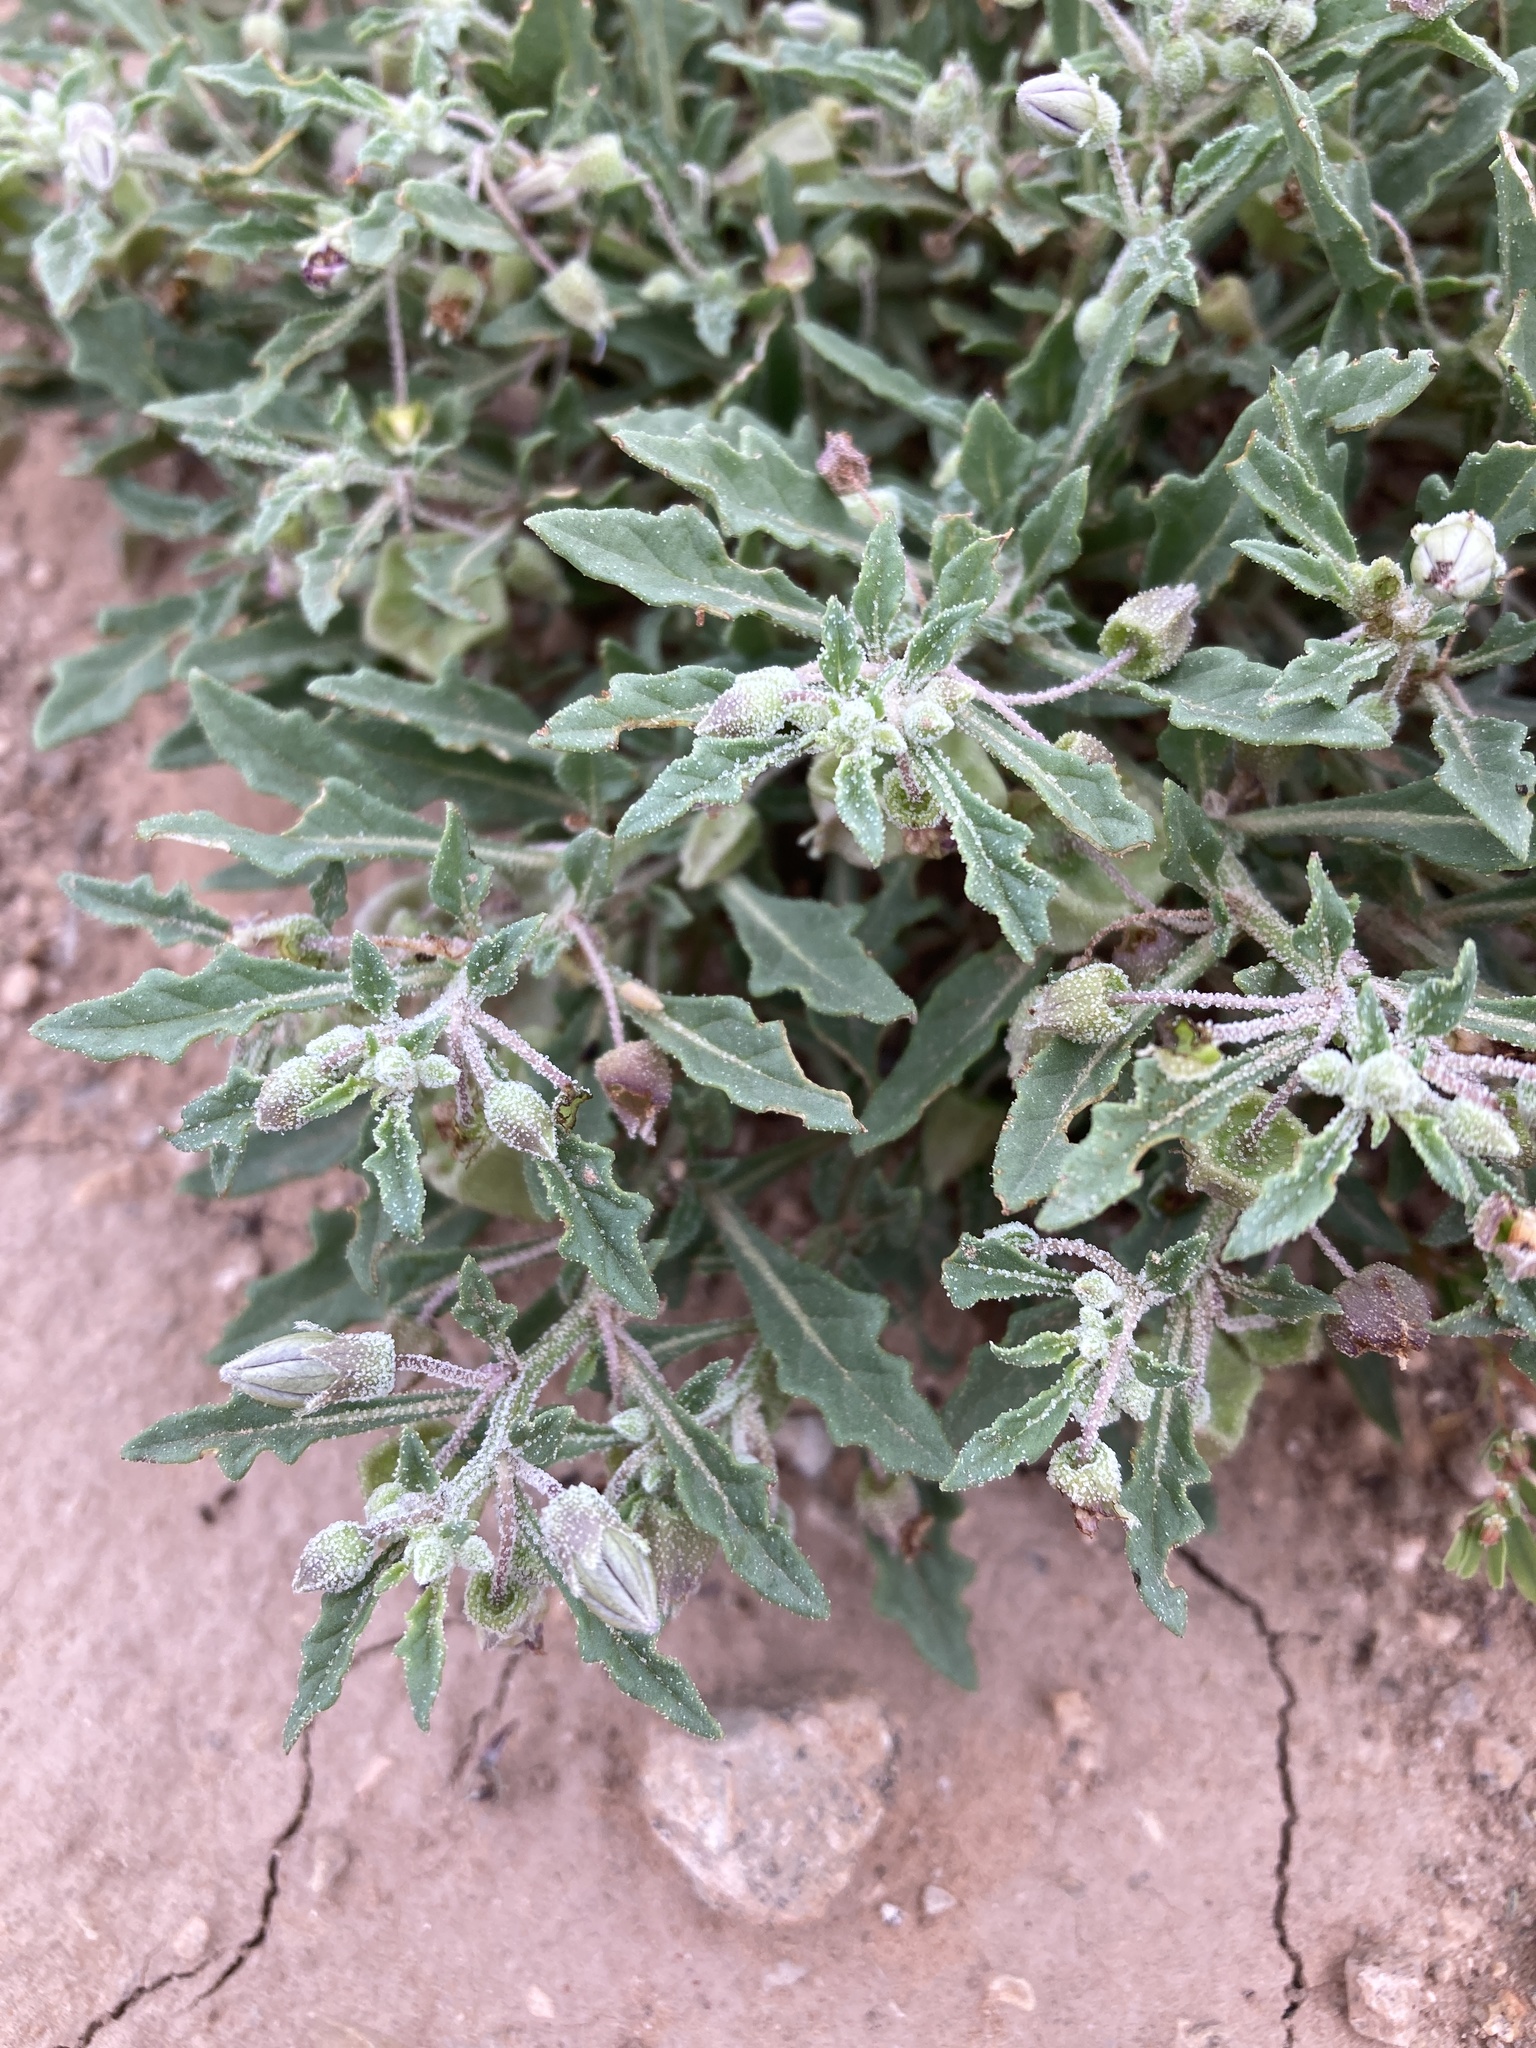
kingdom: Plantae
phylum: Tracheophyta
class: Magnoliopsida
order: Solanales
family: Solanaceae
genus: Quincula
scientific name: Quincula lobata
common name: Purple-ground-cherry
